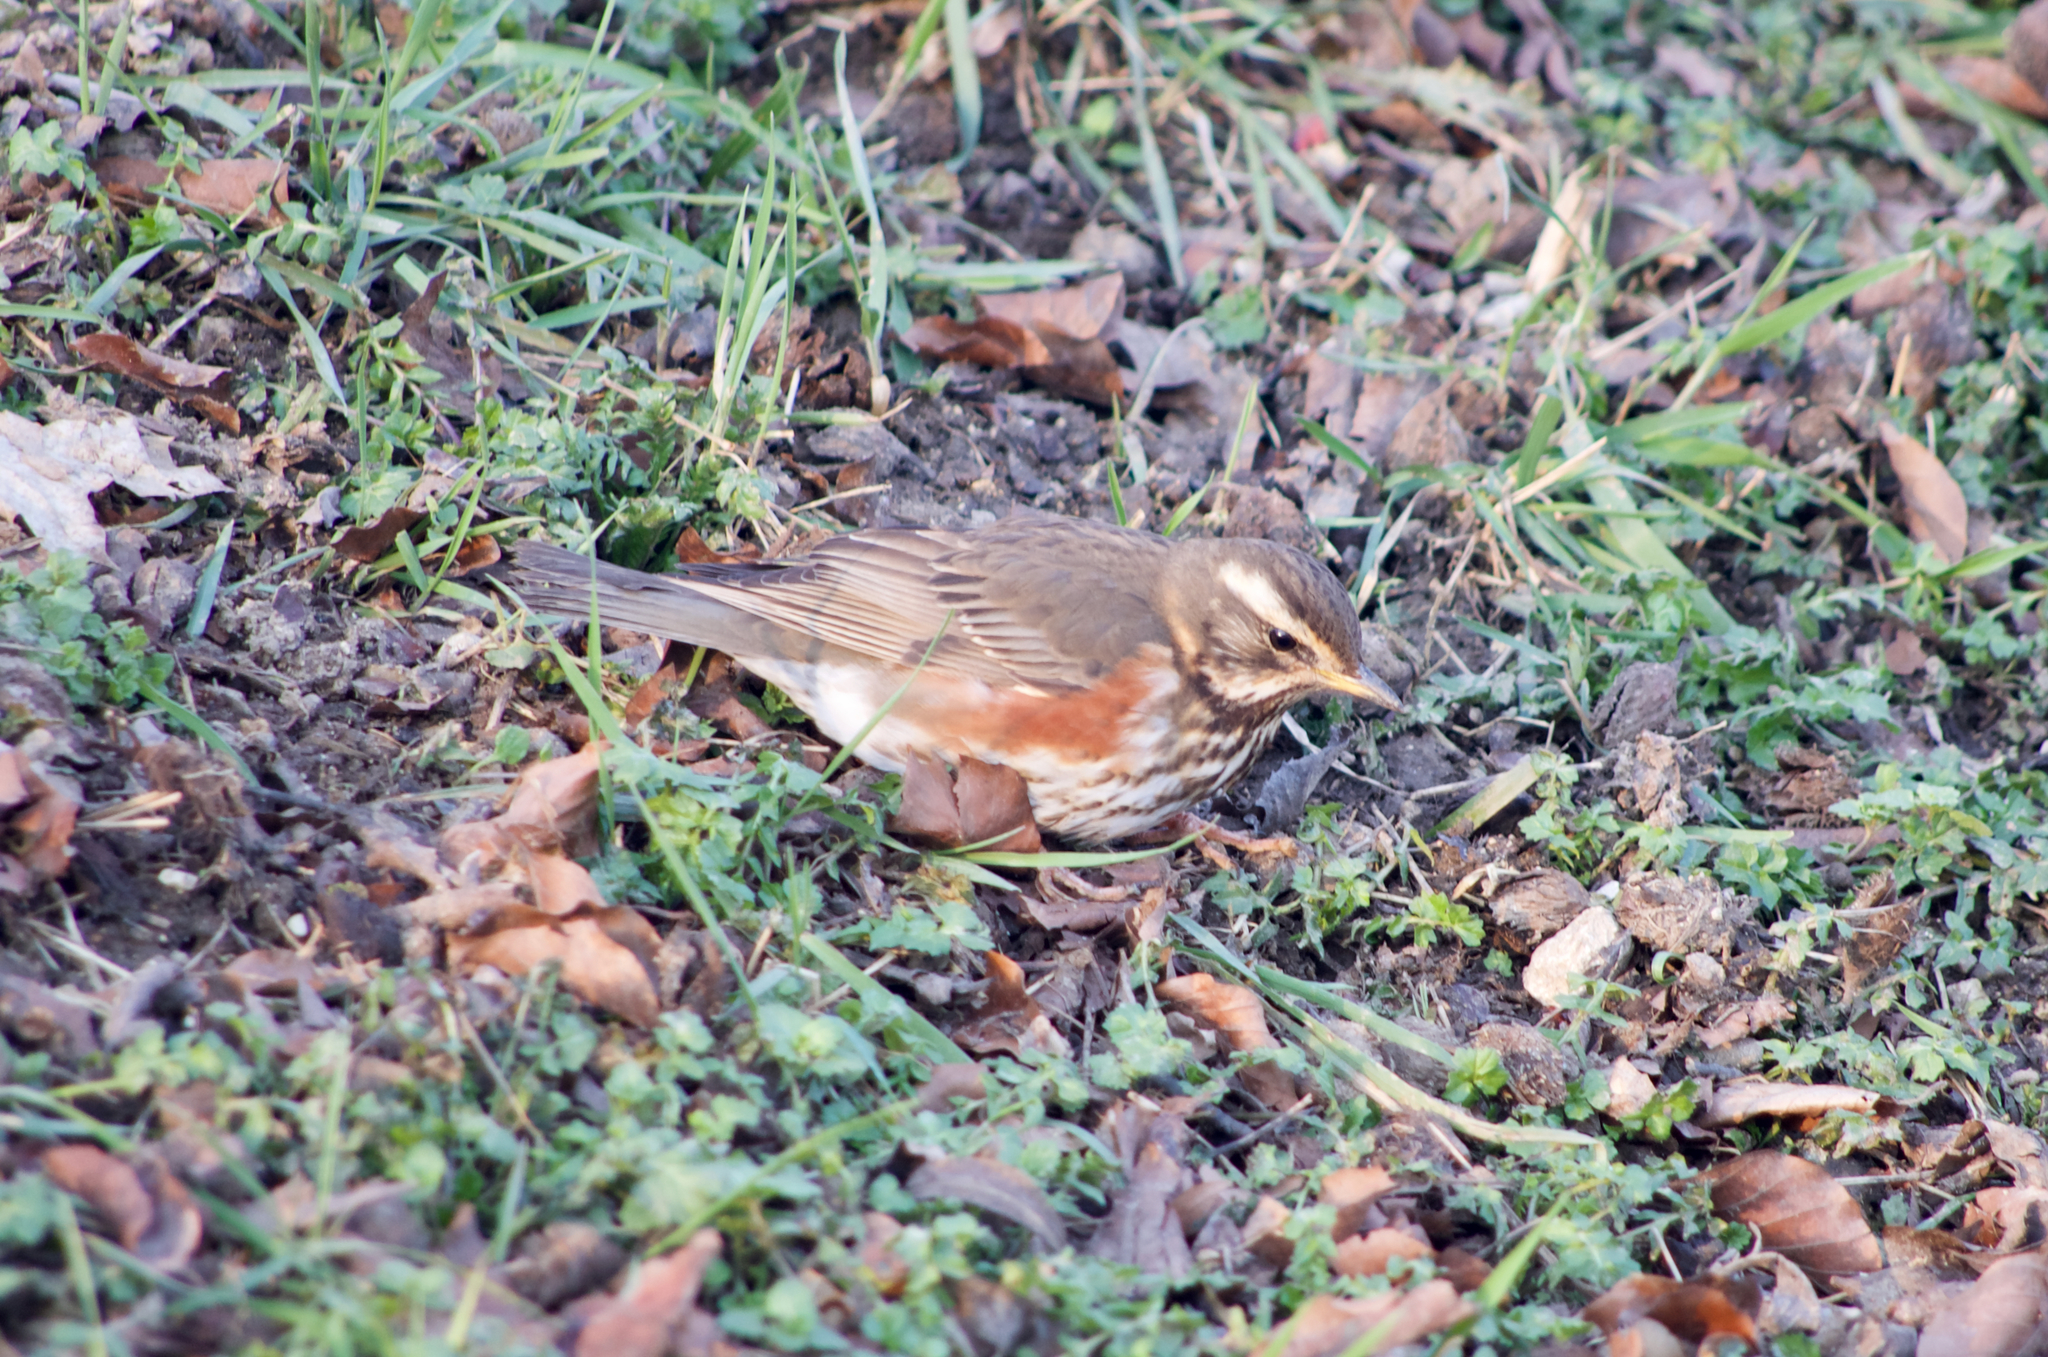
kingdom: Animalia
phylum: Chordata
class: Aves
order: Passeriformes
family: Turdidae
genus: Turdus
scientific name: Turdus iliacus
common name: Redwing
